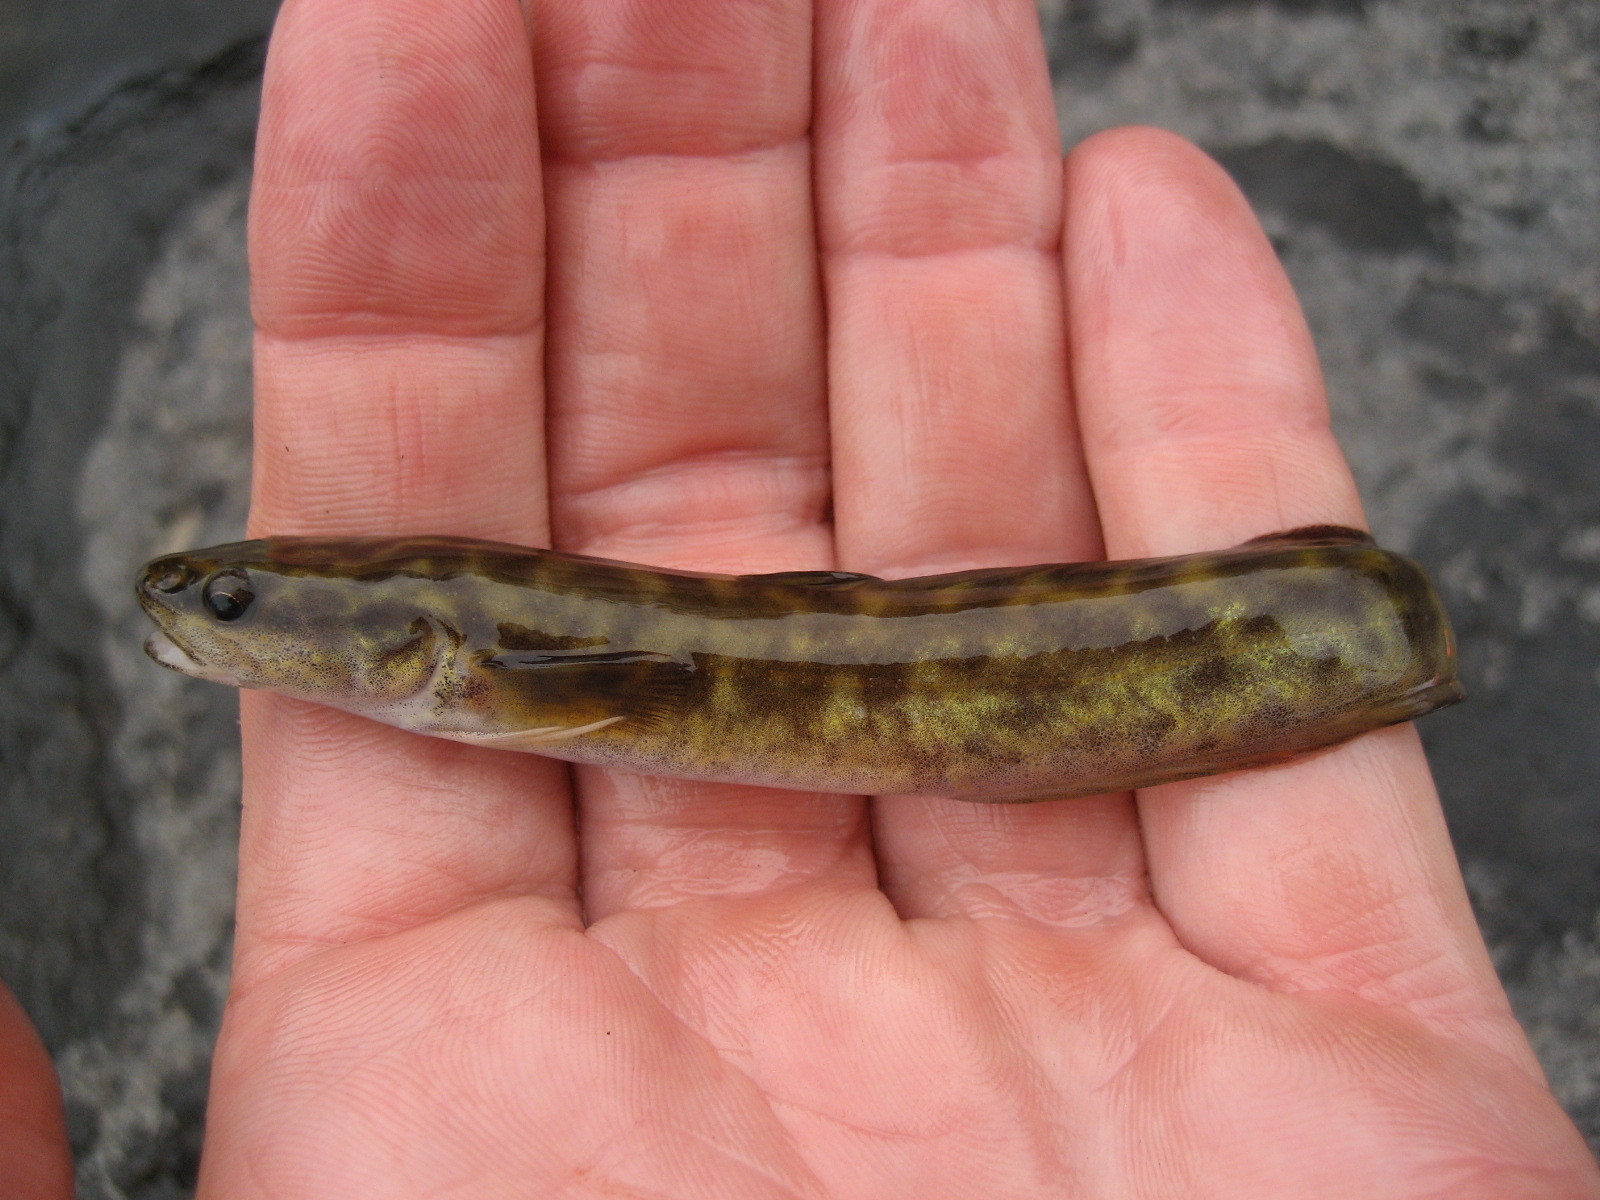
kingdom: Animalia
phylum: Chordata
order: Gadiformes
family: Lotidae
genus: Lota
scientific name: Lota lota
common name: Burbot
